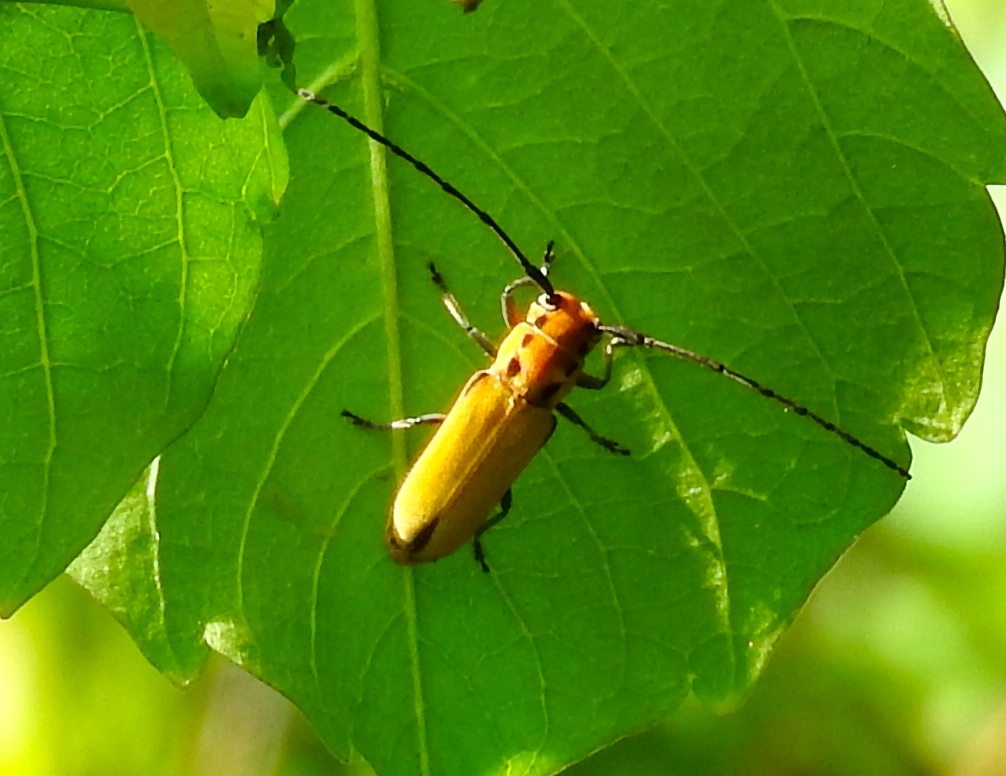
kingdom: Animalia
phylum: Arthropoda
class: Insecta
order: Coleoptera
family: Cerambycidae
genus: Essostrutha
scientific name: Essostrutha laeta
